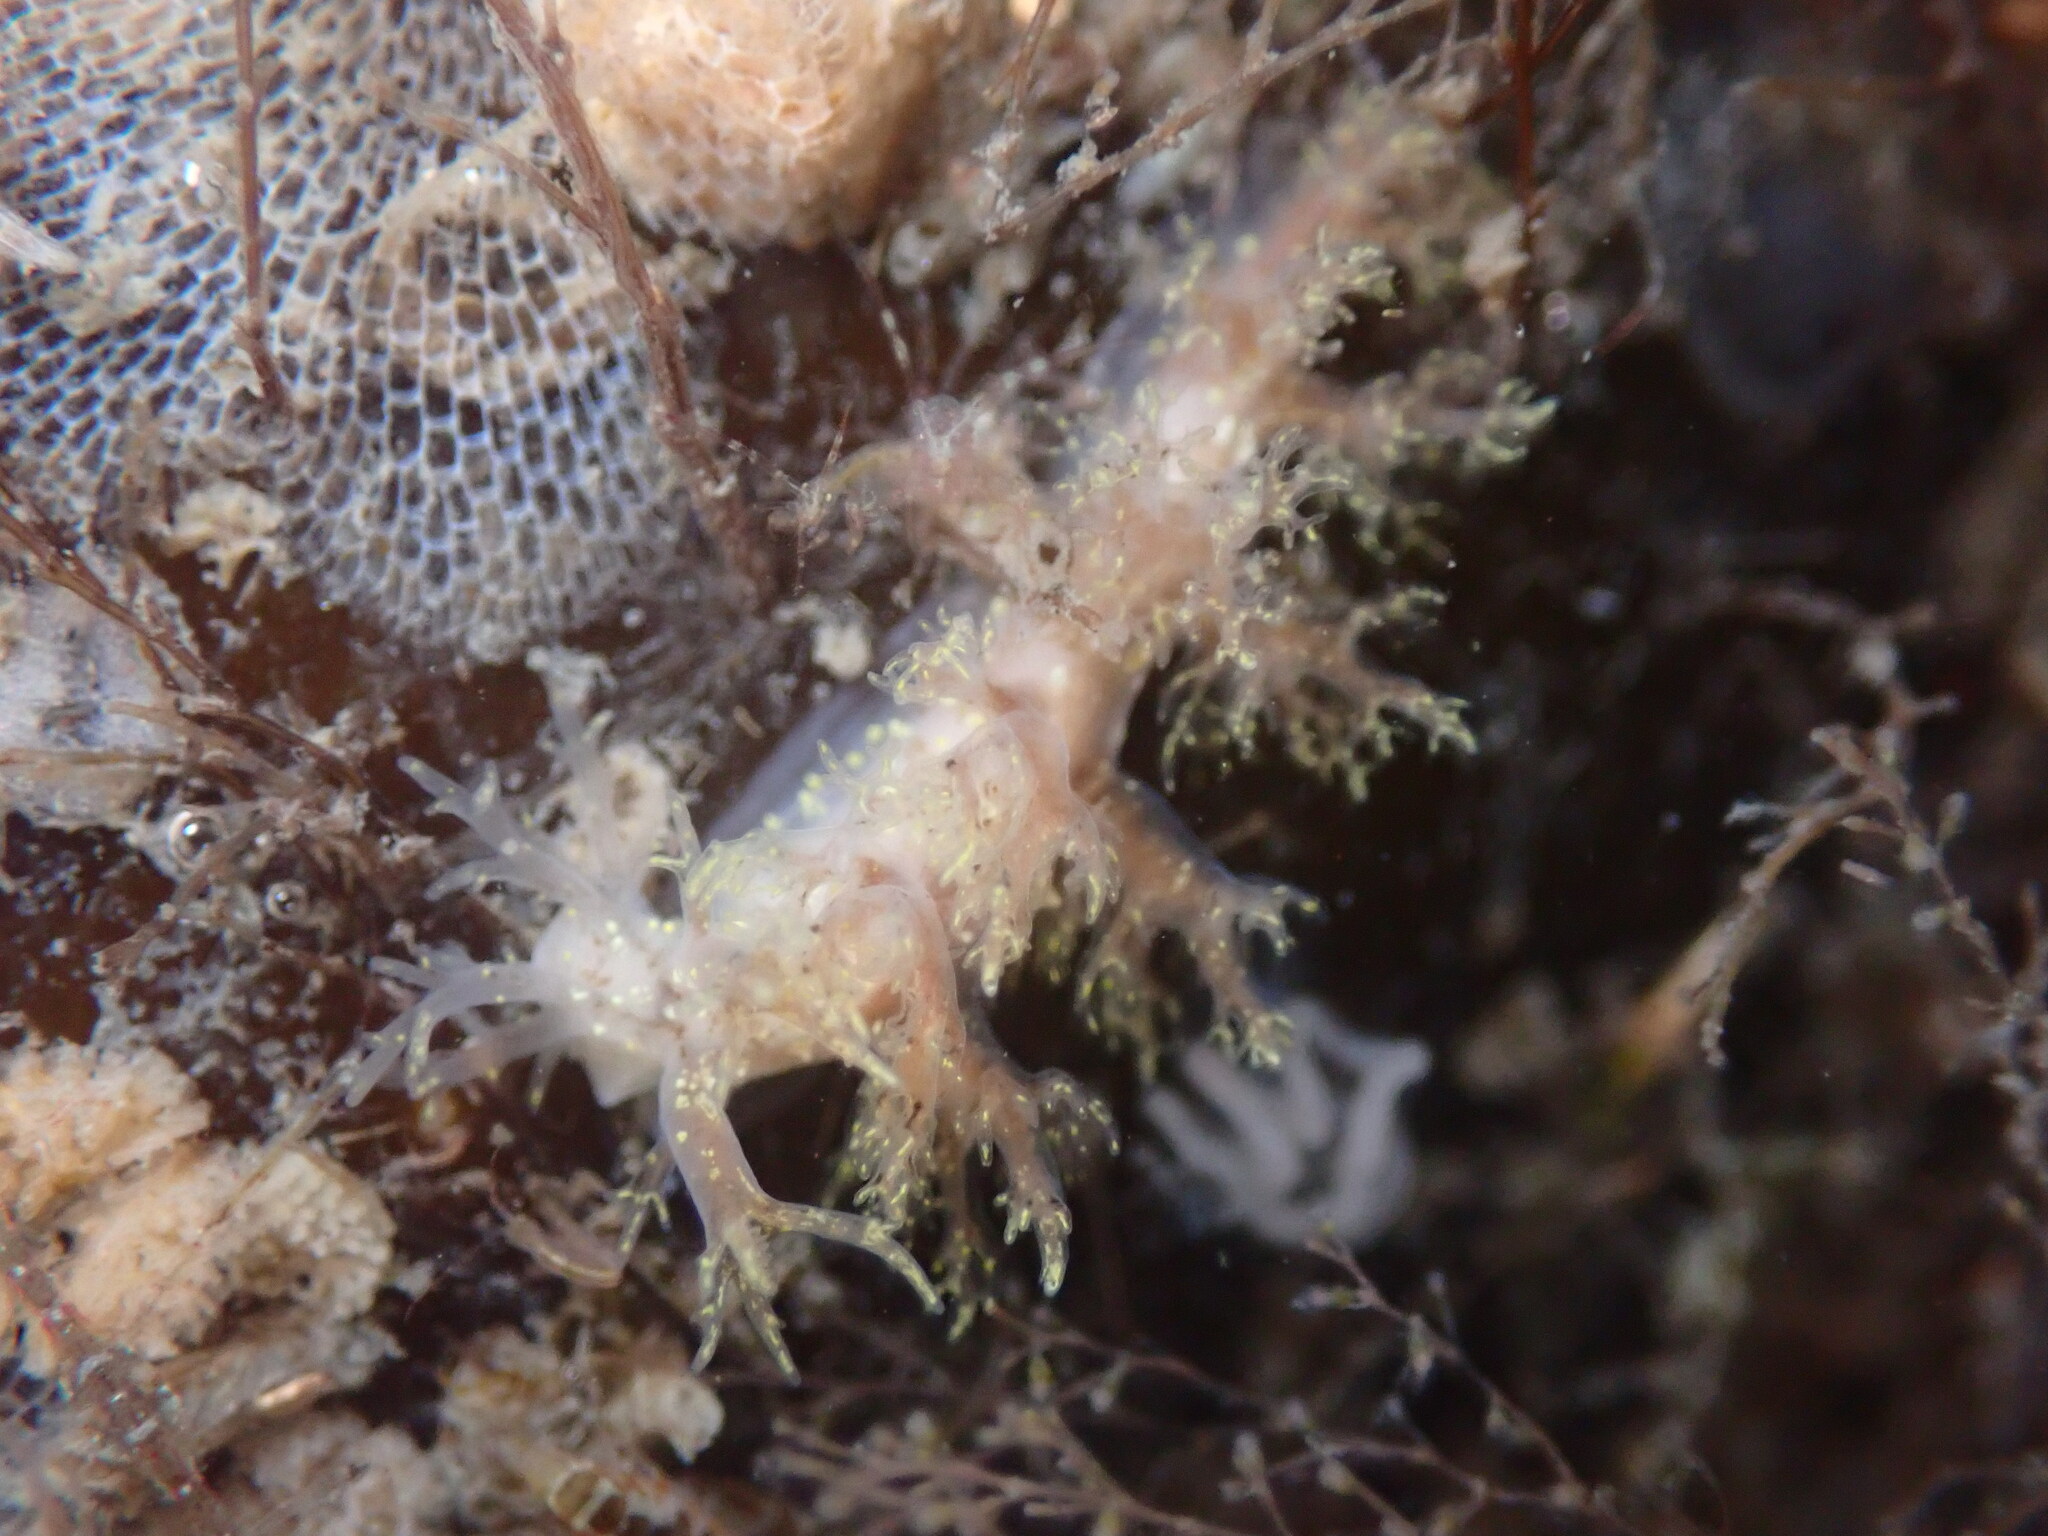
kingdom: Animalia
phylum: Mollusca
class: Gastropoda
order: Nudibranchia
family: Dendronotidae
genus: Dendronotus
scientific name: Dendronotus venustus
